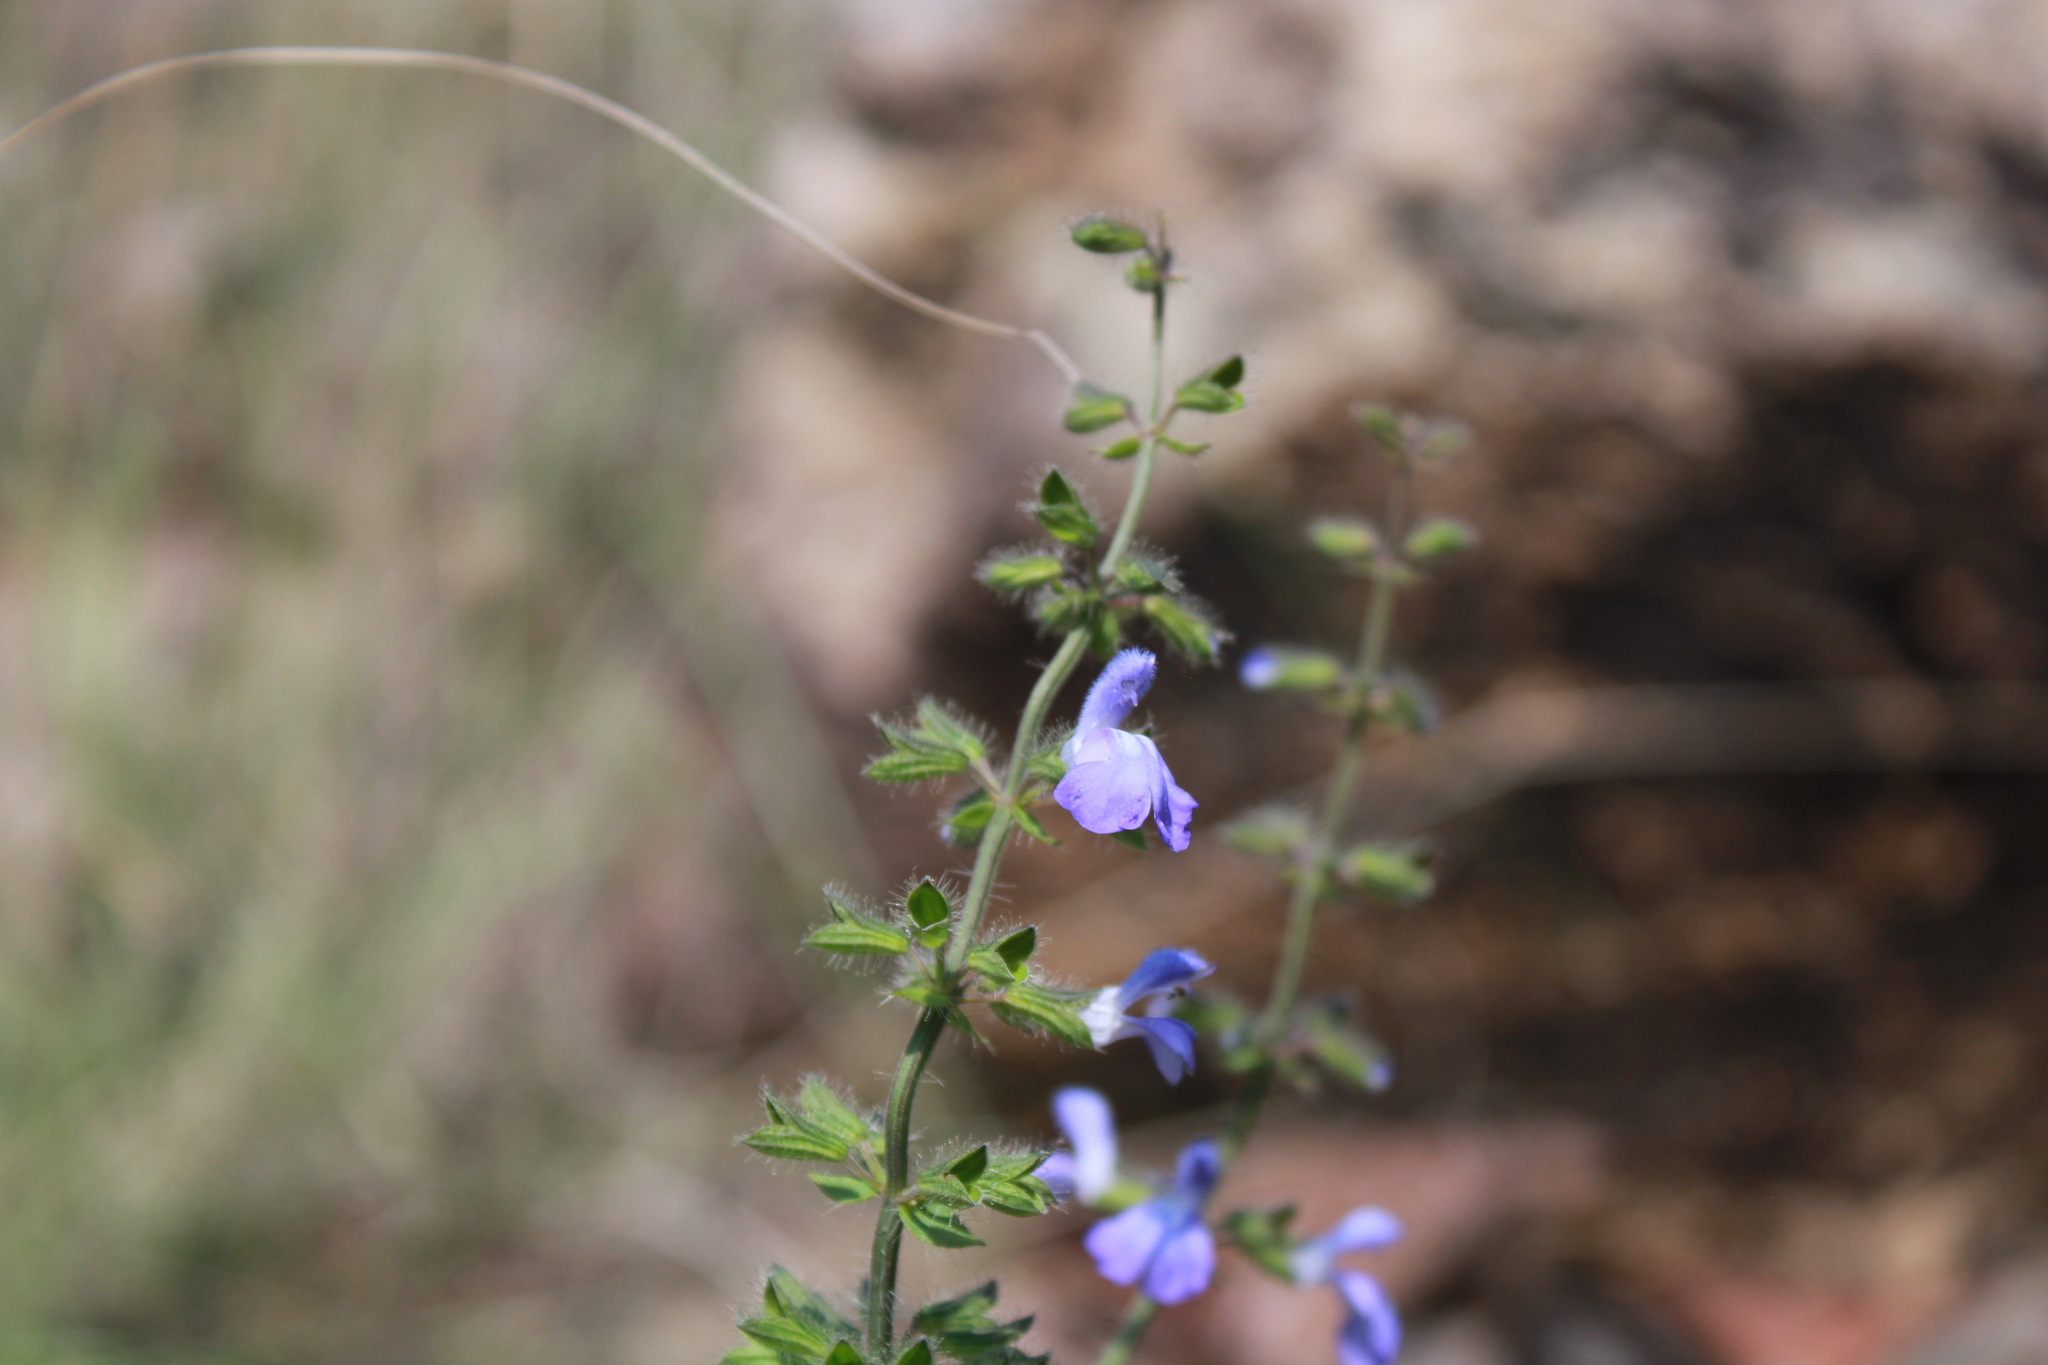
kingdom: Plantae
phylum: Tracheophyta
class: Magnoliopsida
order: Lamiales
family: Lamiaceae
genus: Salvia
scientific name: Salvia heterotricha
